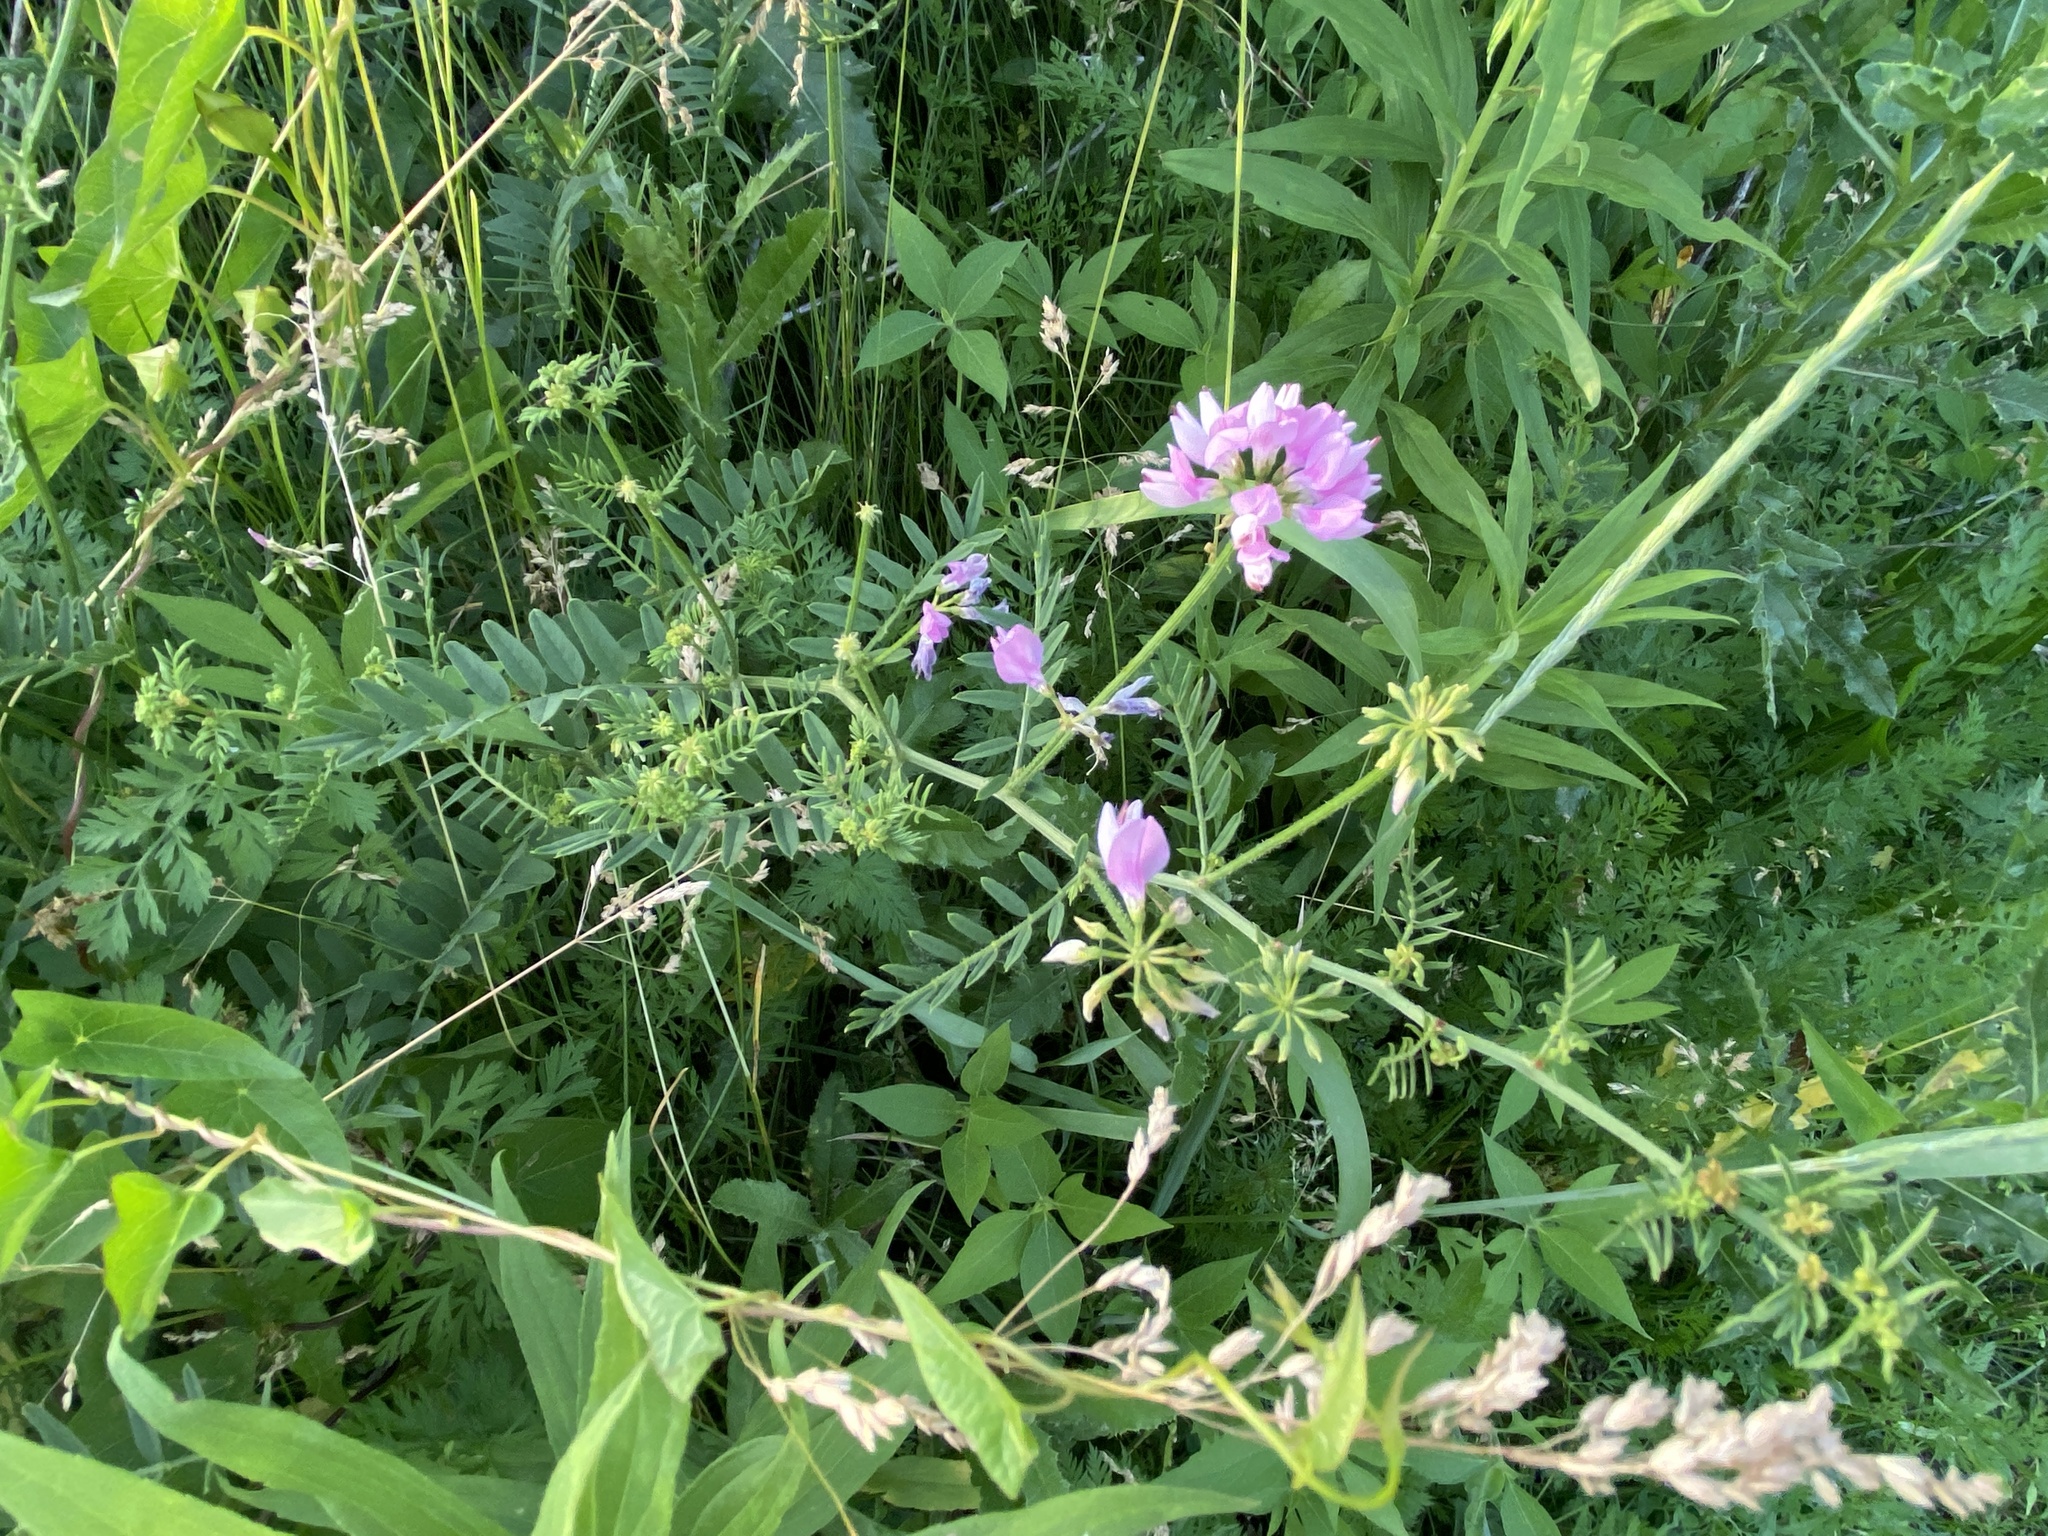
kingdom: Plantae
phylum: Tracheophyta
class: Magnoliopsida
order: Fabales
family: Fabaceae
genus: Coronilla
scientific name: Coronilla varia
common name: Crownvetch
